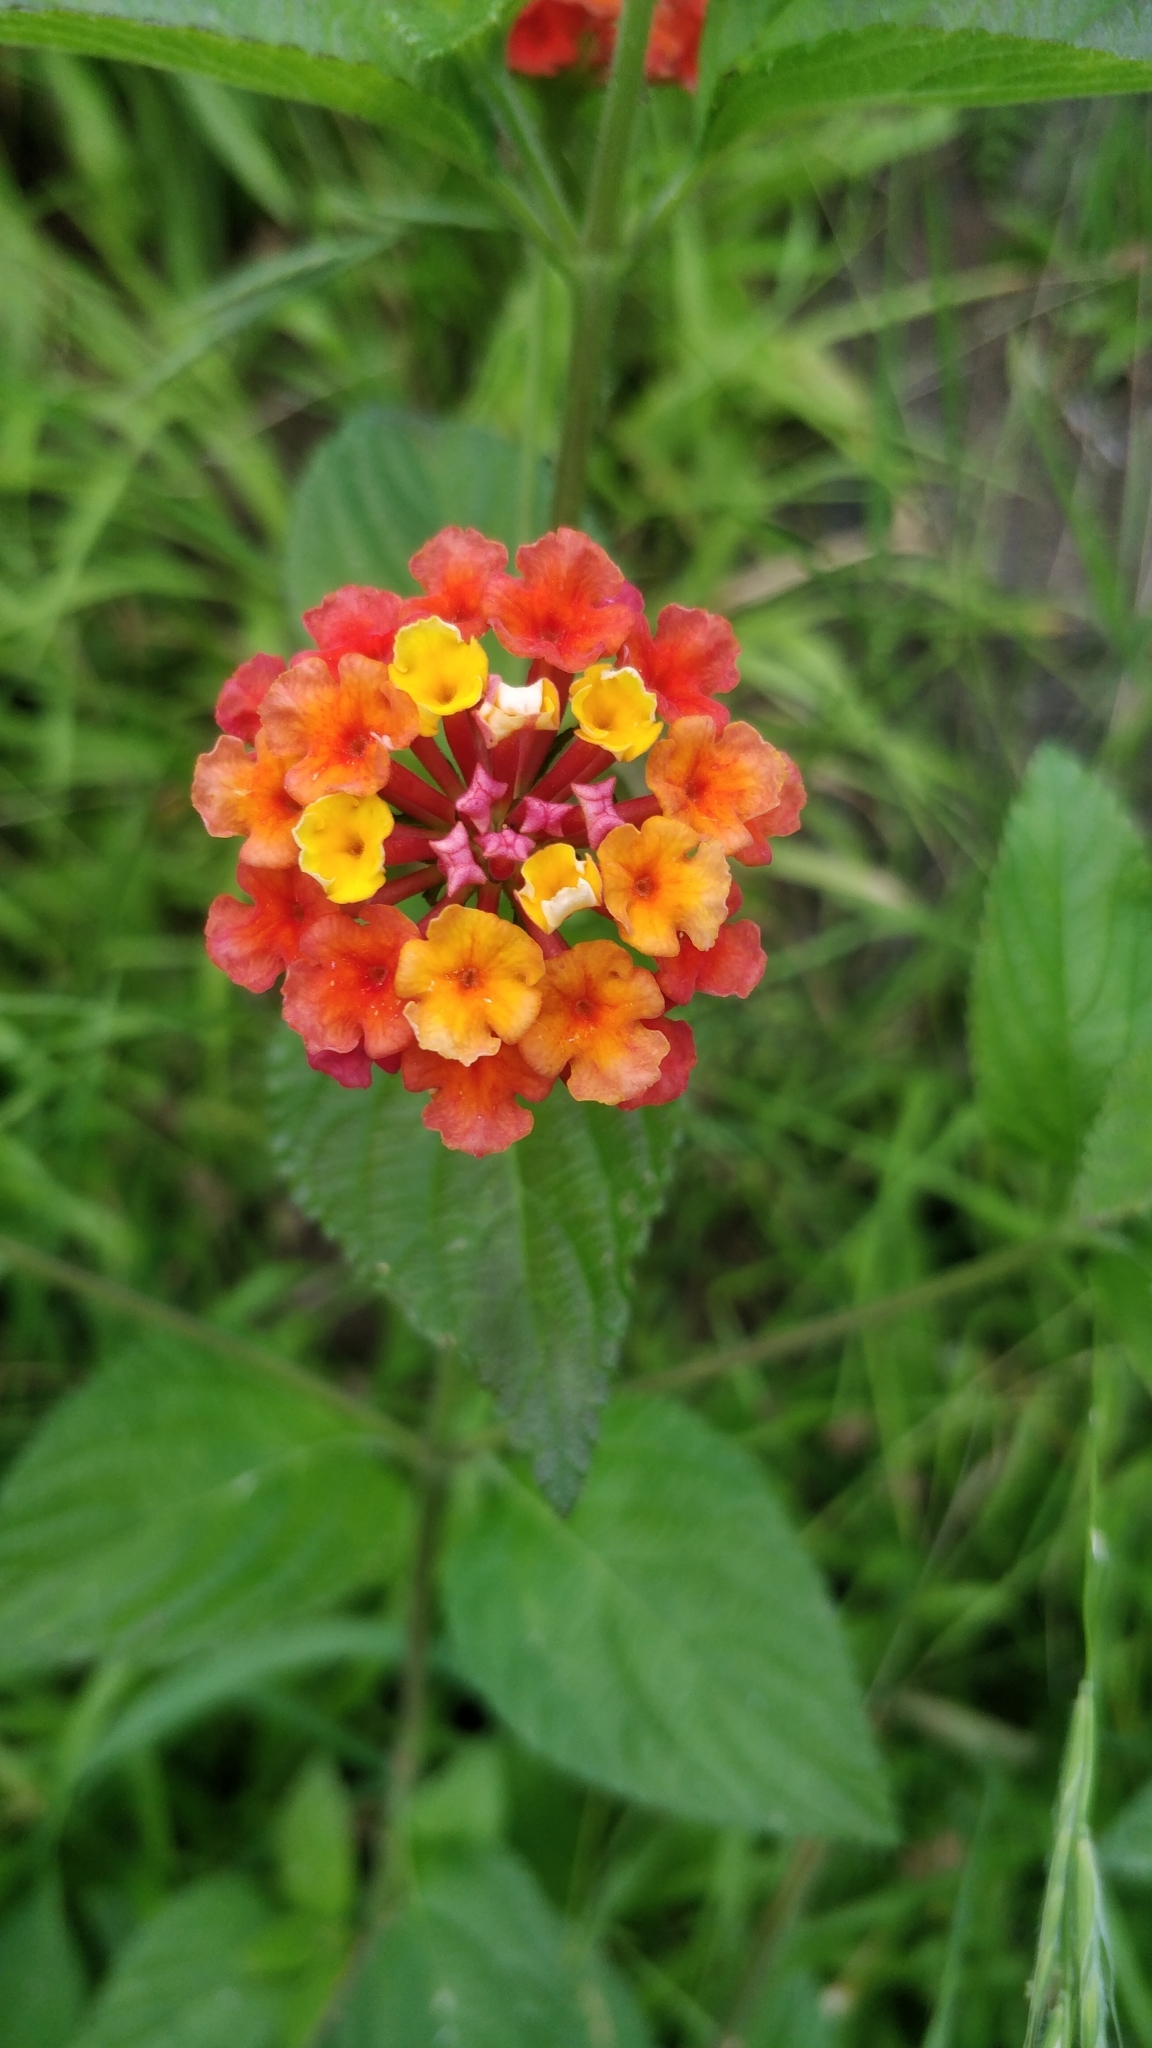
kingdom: Plantae
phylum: Tracheophyta
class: Magnoliopsida
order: Lamiales
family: Verbenaceae
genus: Lantana
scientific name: Lantana camara
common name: Lantana
